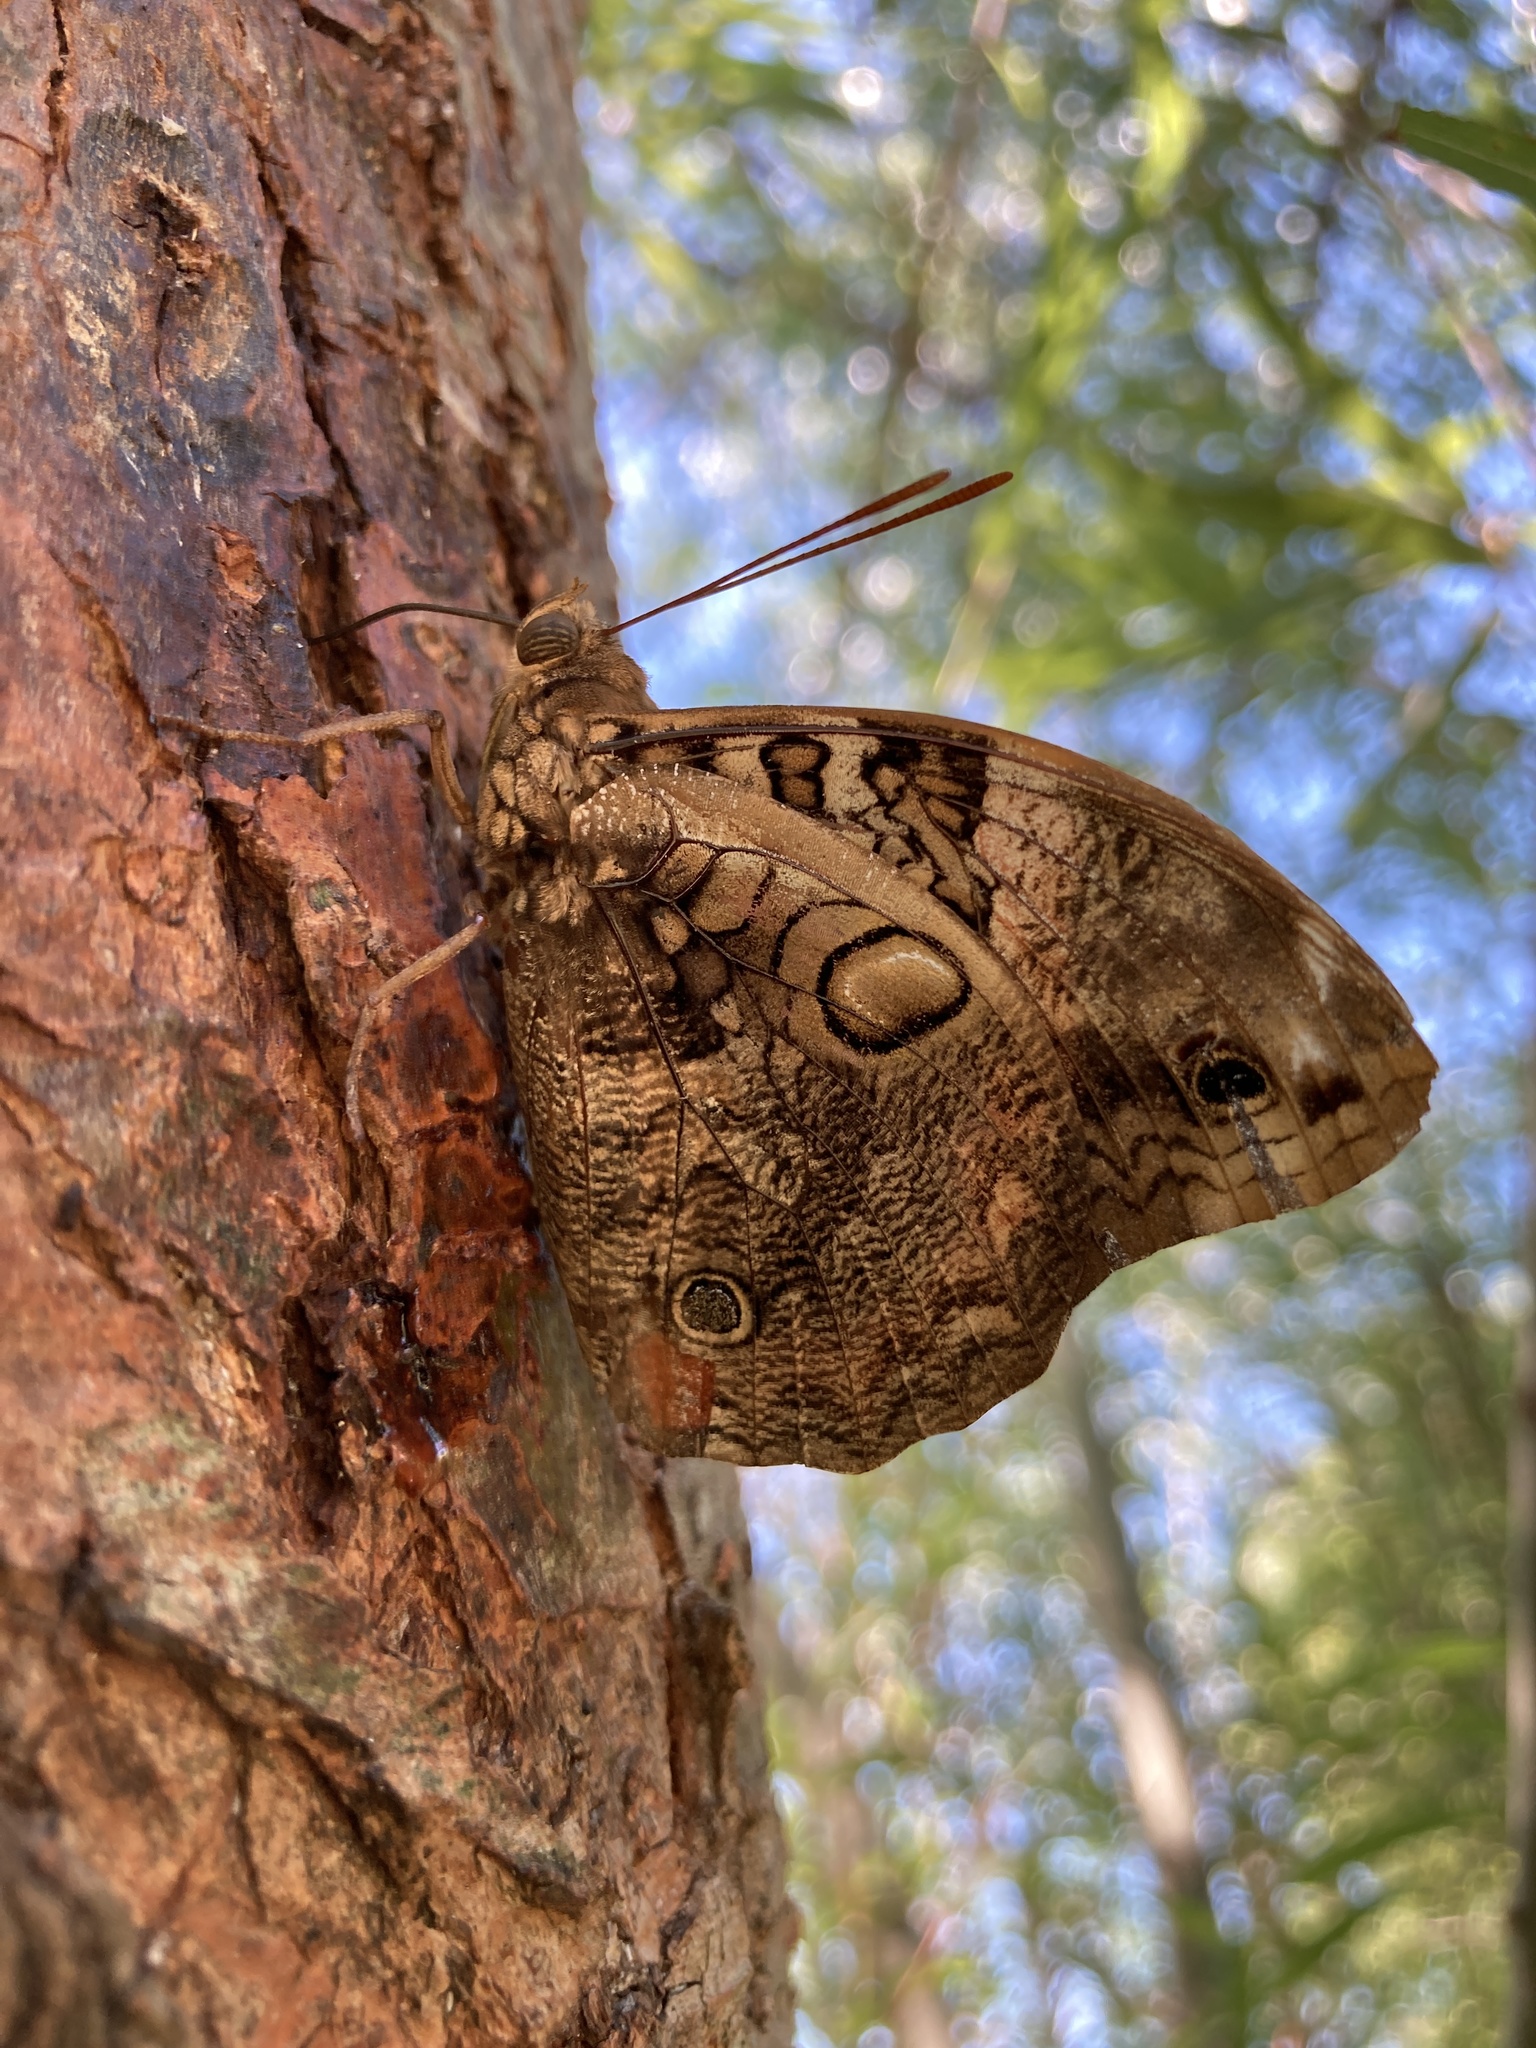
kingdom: Animalia
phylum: Arthropoda
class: Insecta
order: Lepidoptera
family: Nymphalidae
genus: Opsiphanes
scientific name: Opsiphanes invirae
